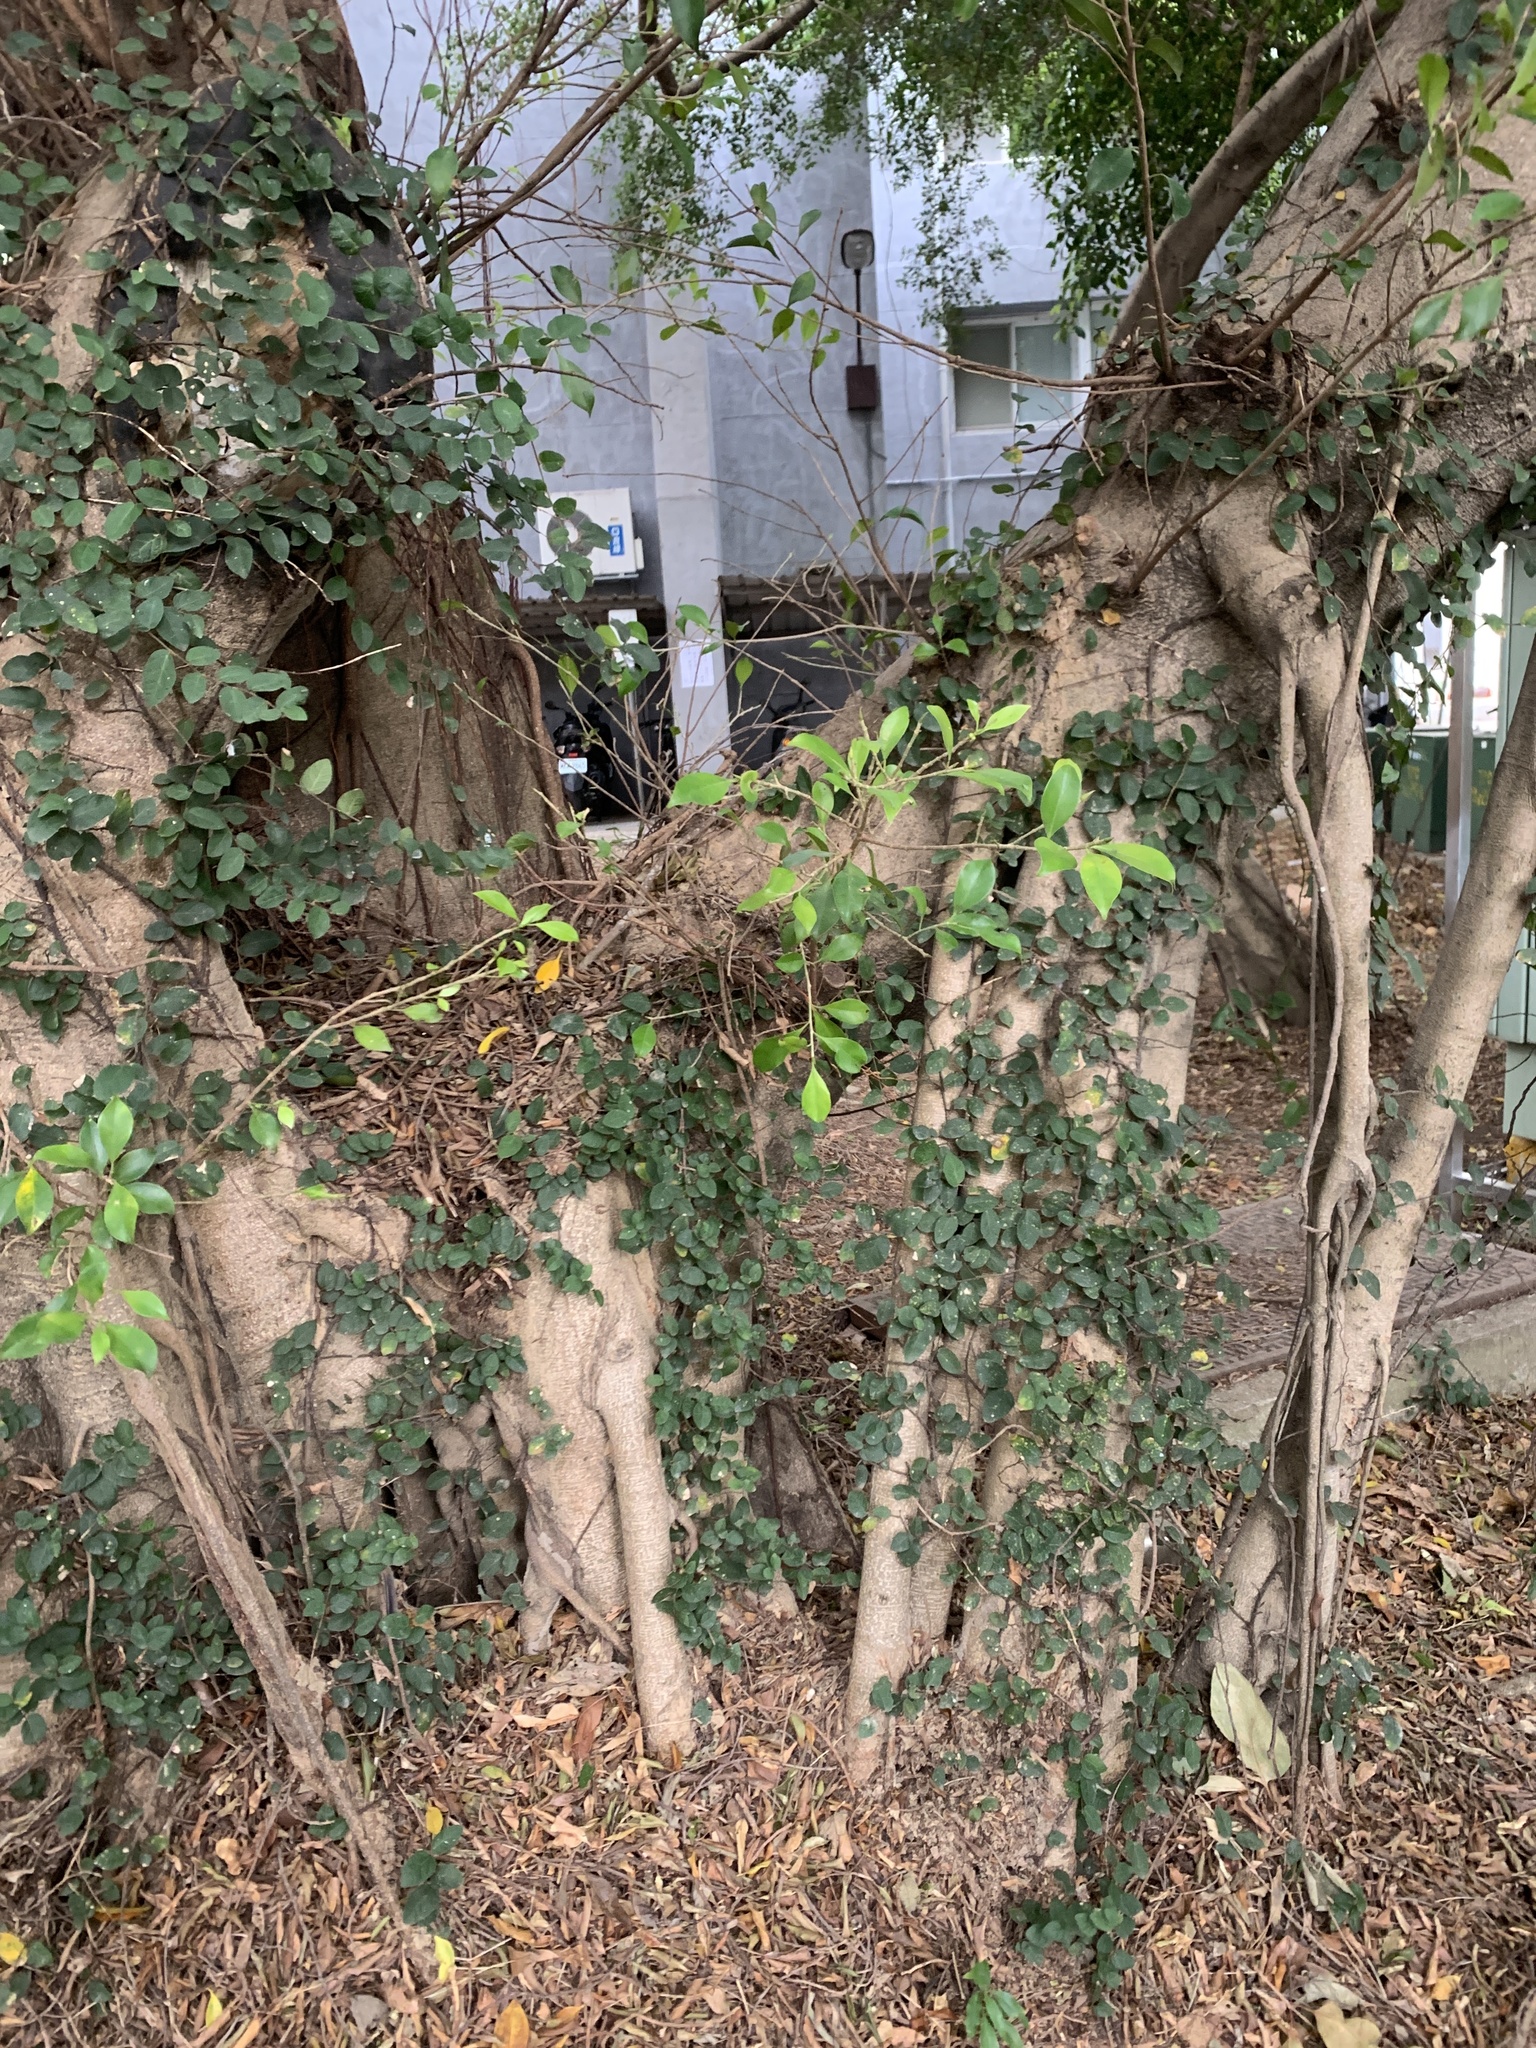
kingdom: Plantae
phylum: Tracheophyta
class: Magnoliopsida
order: Rosales
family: Moraceae
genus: Ficus
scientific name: Ficus microcarpa
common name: Chinese banyan
